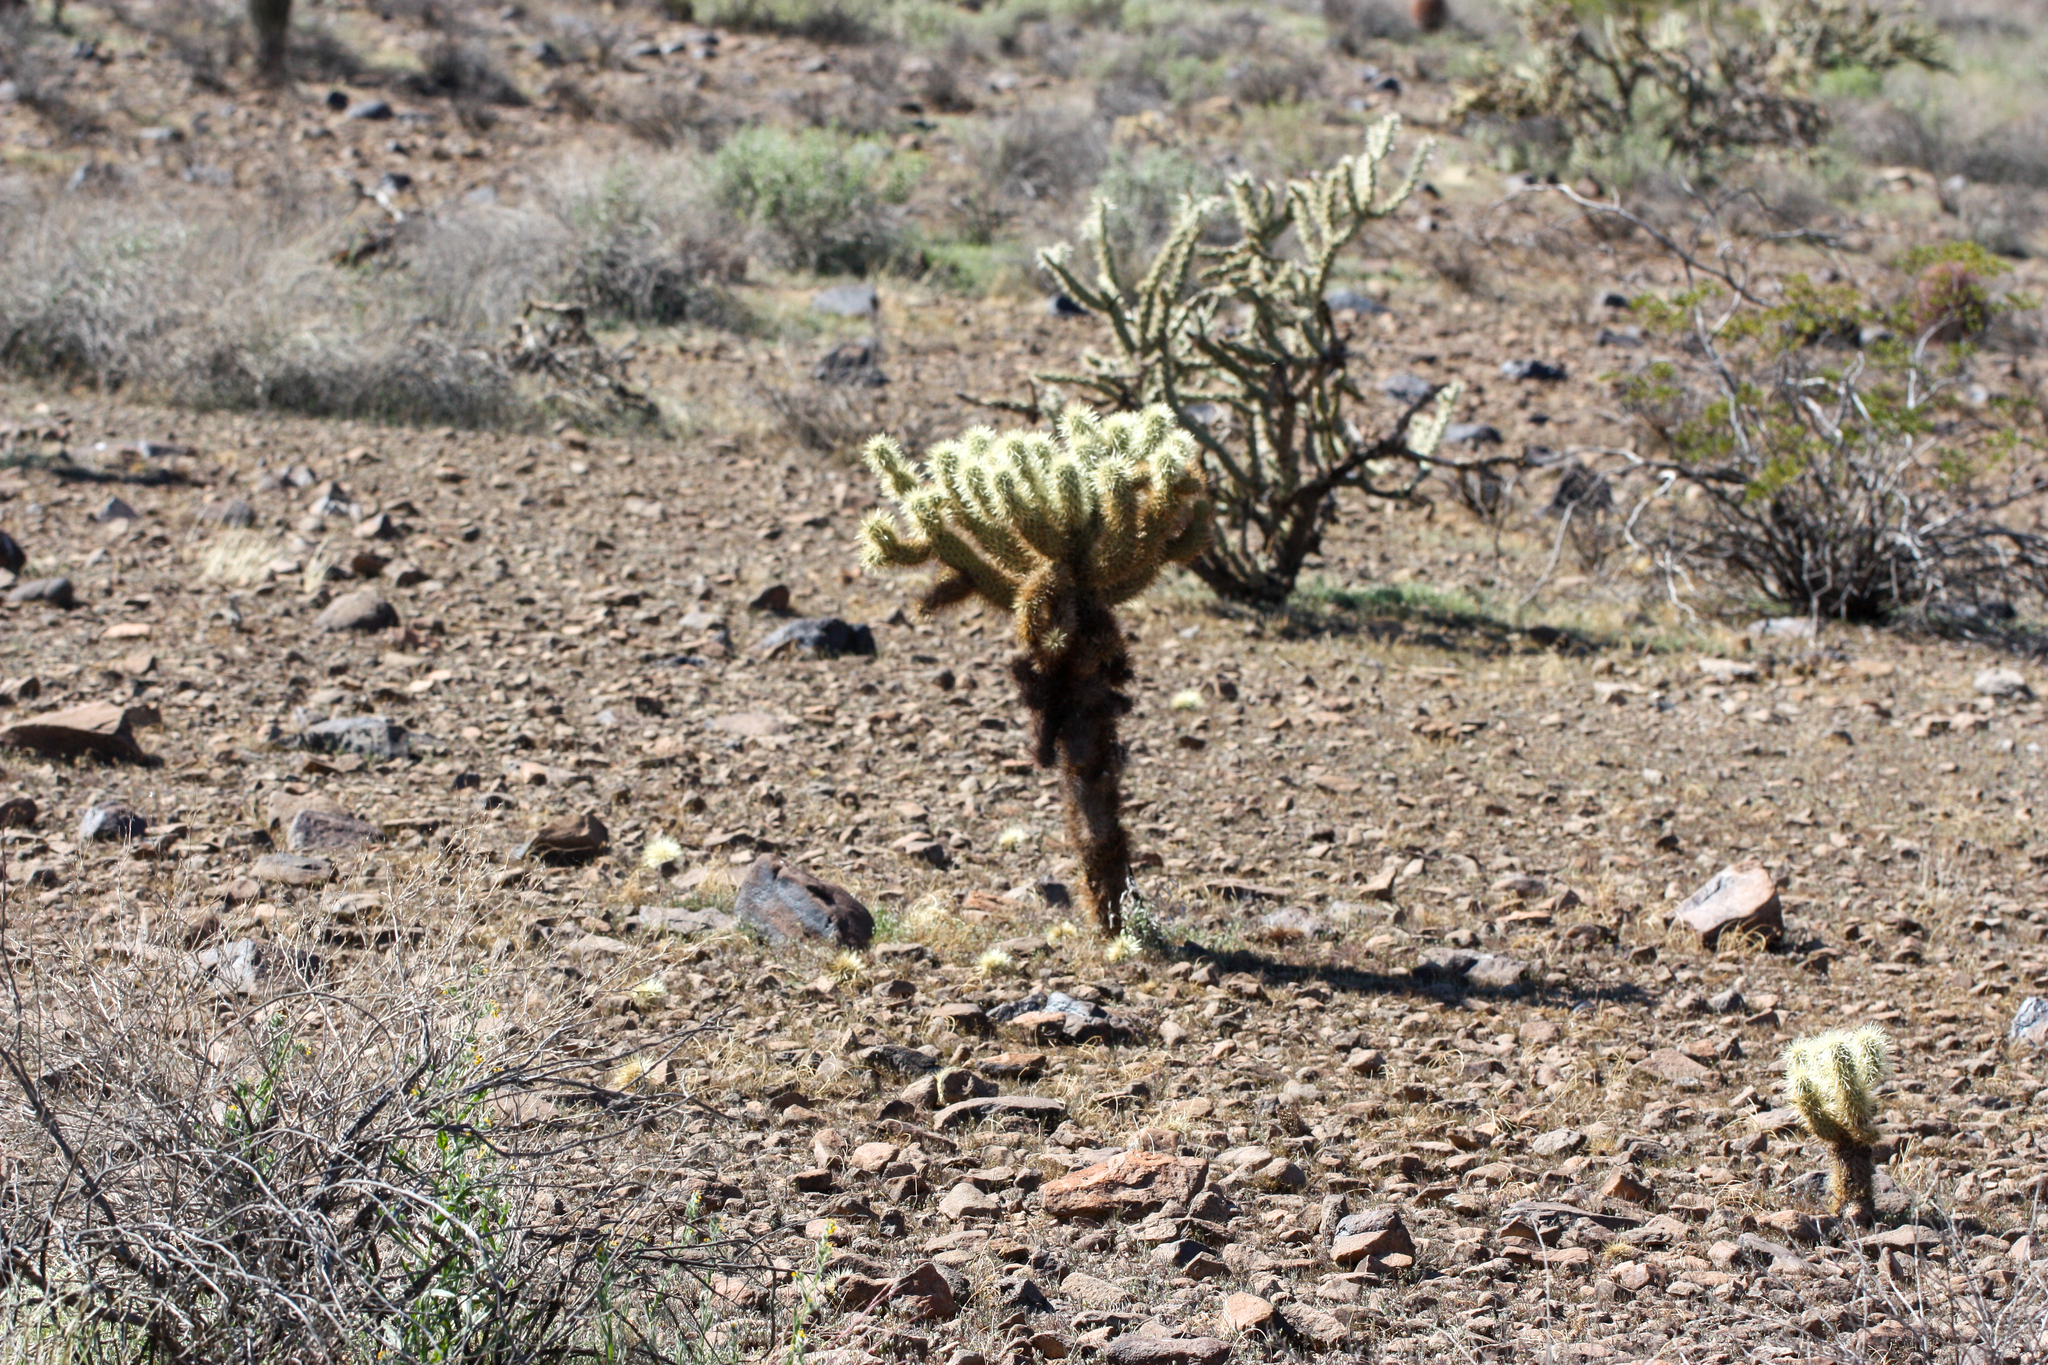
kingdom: Plantae
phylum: Tracheophyta
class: Magnoliopsida
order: Caryophyllales
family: Cactaceae
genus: Cylindropuntia
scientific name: Cylindropuntia fosbergii
